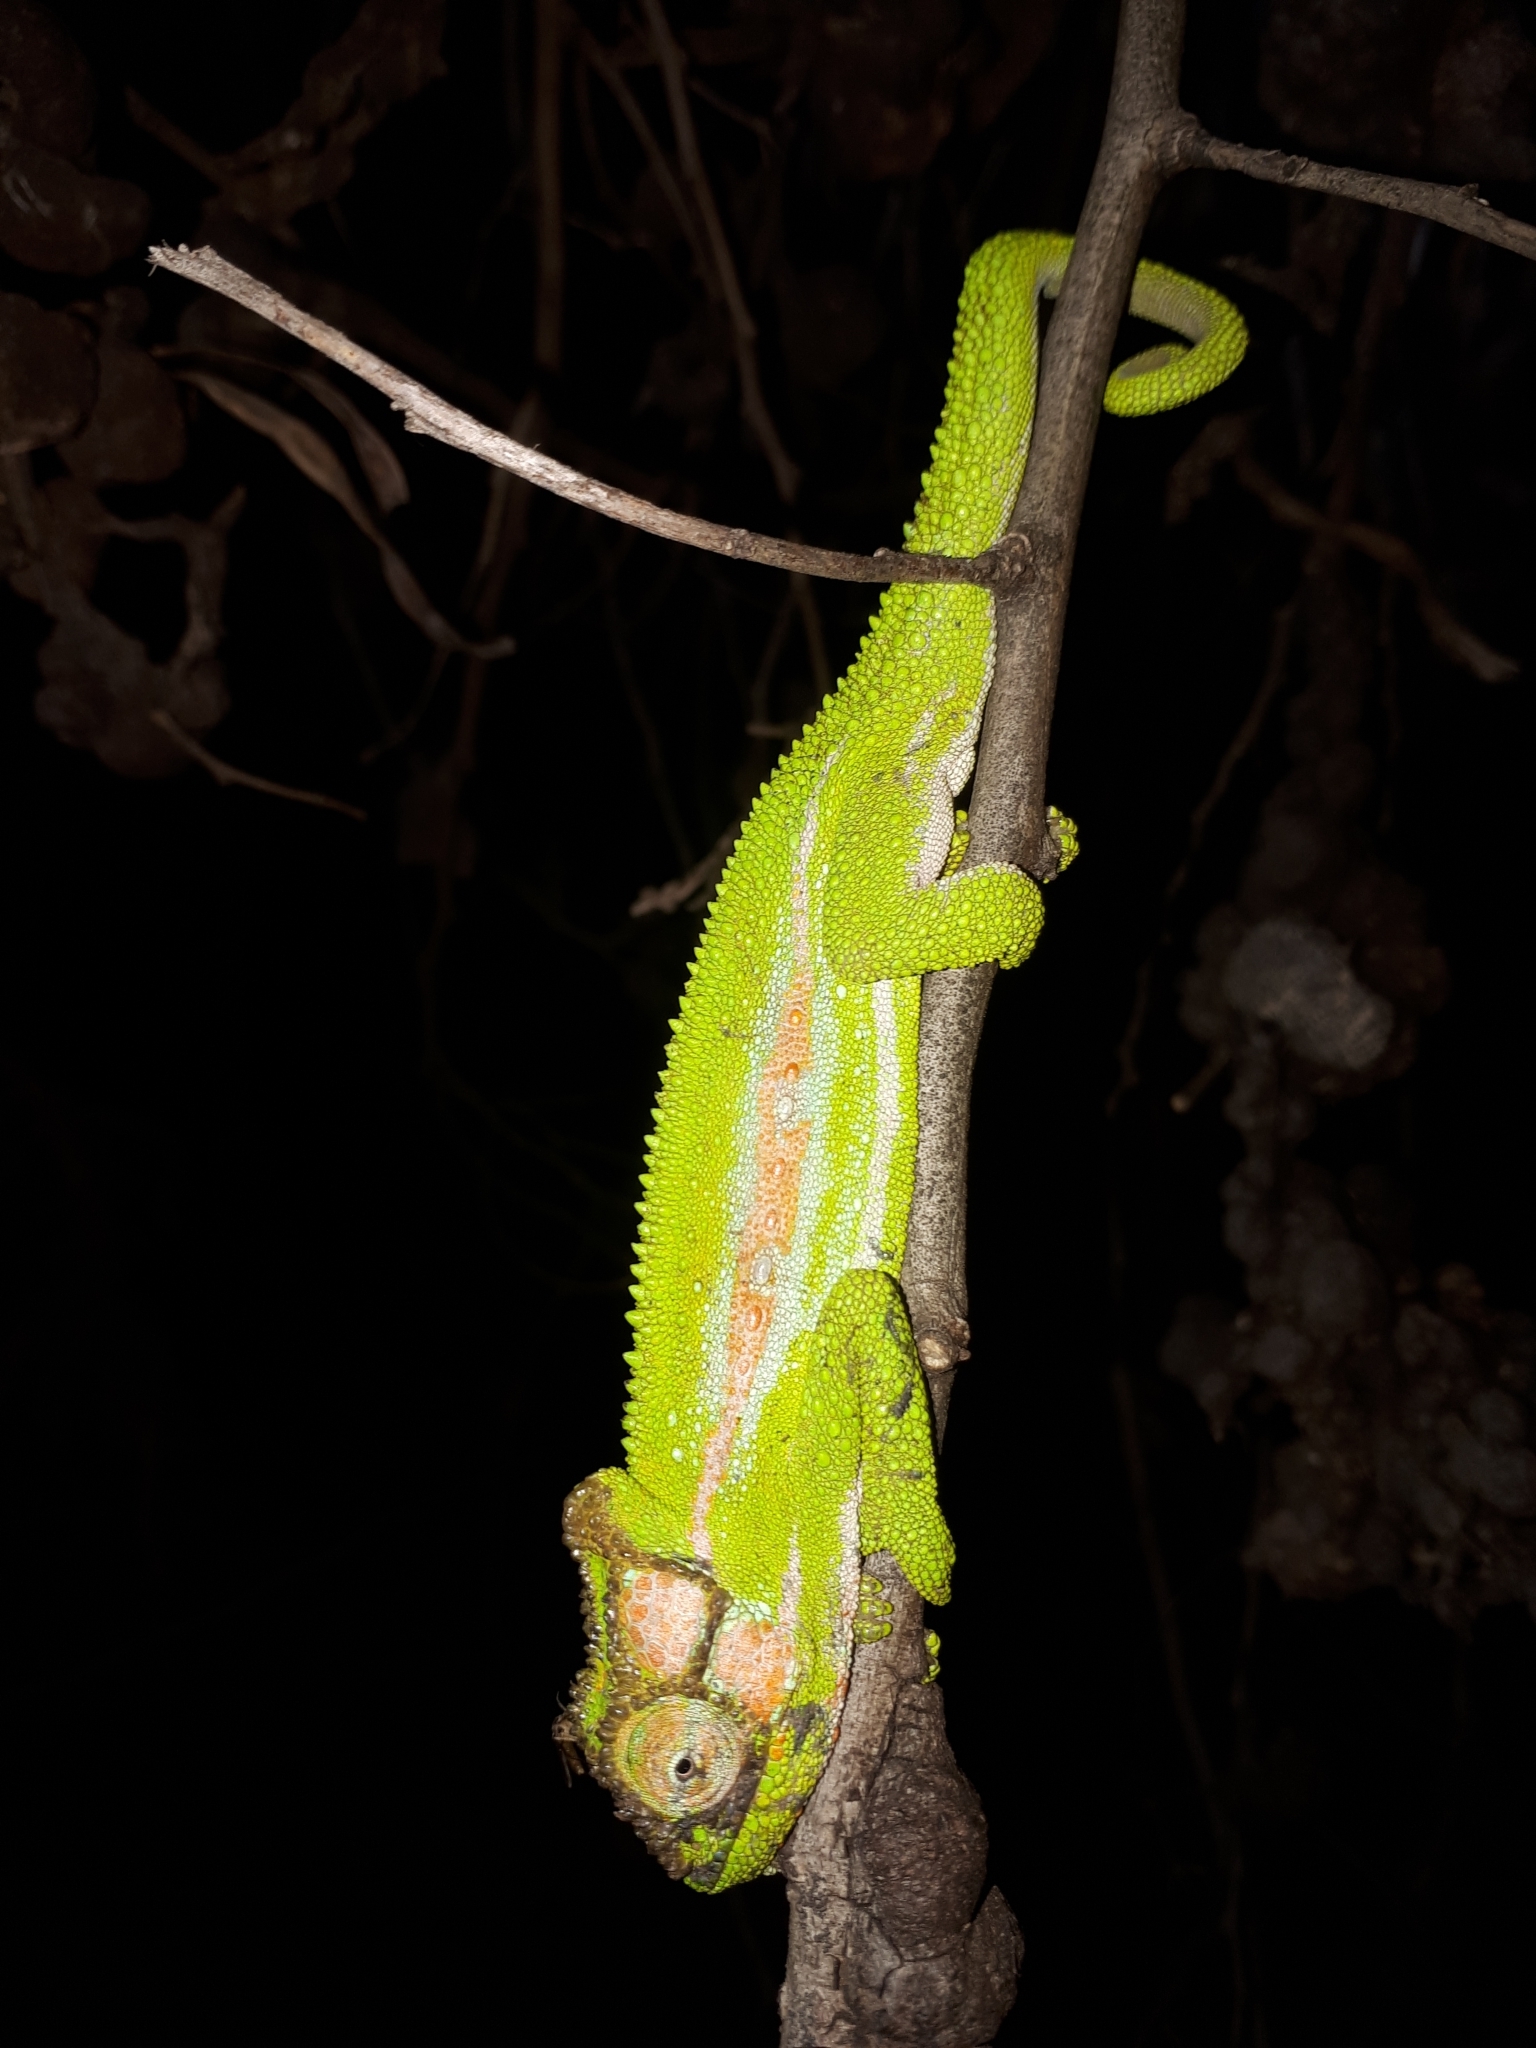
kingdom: Animalia
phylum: Chordata
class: Squamata
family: Chamaeleonidae
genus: Bradypodion
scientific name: Bradypodion pumilum
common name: Cape dwarf chameleon
